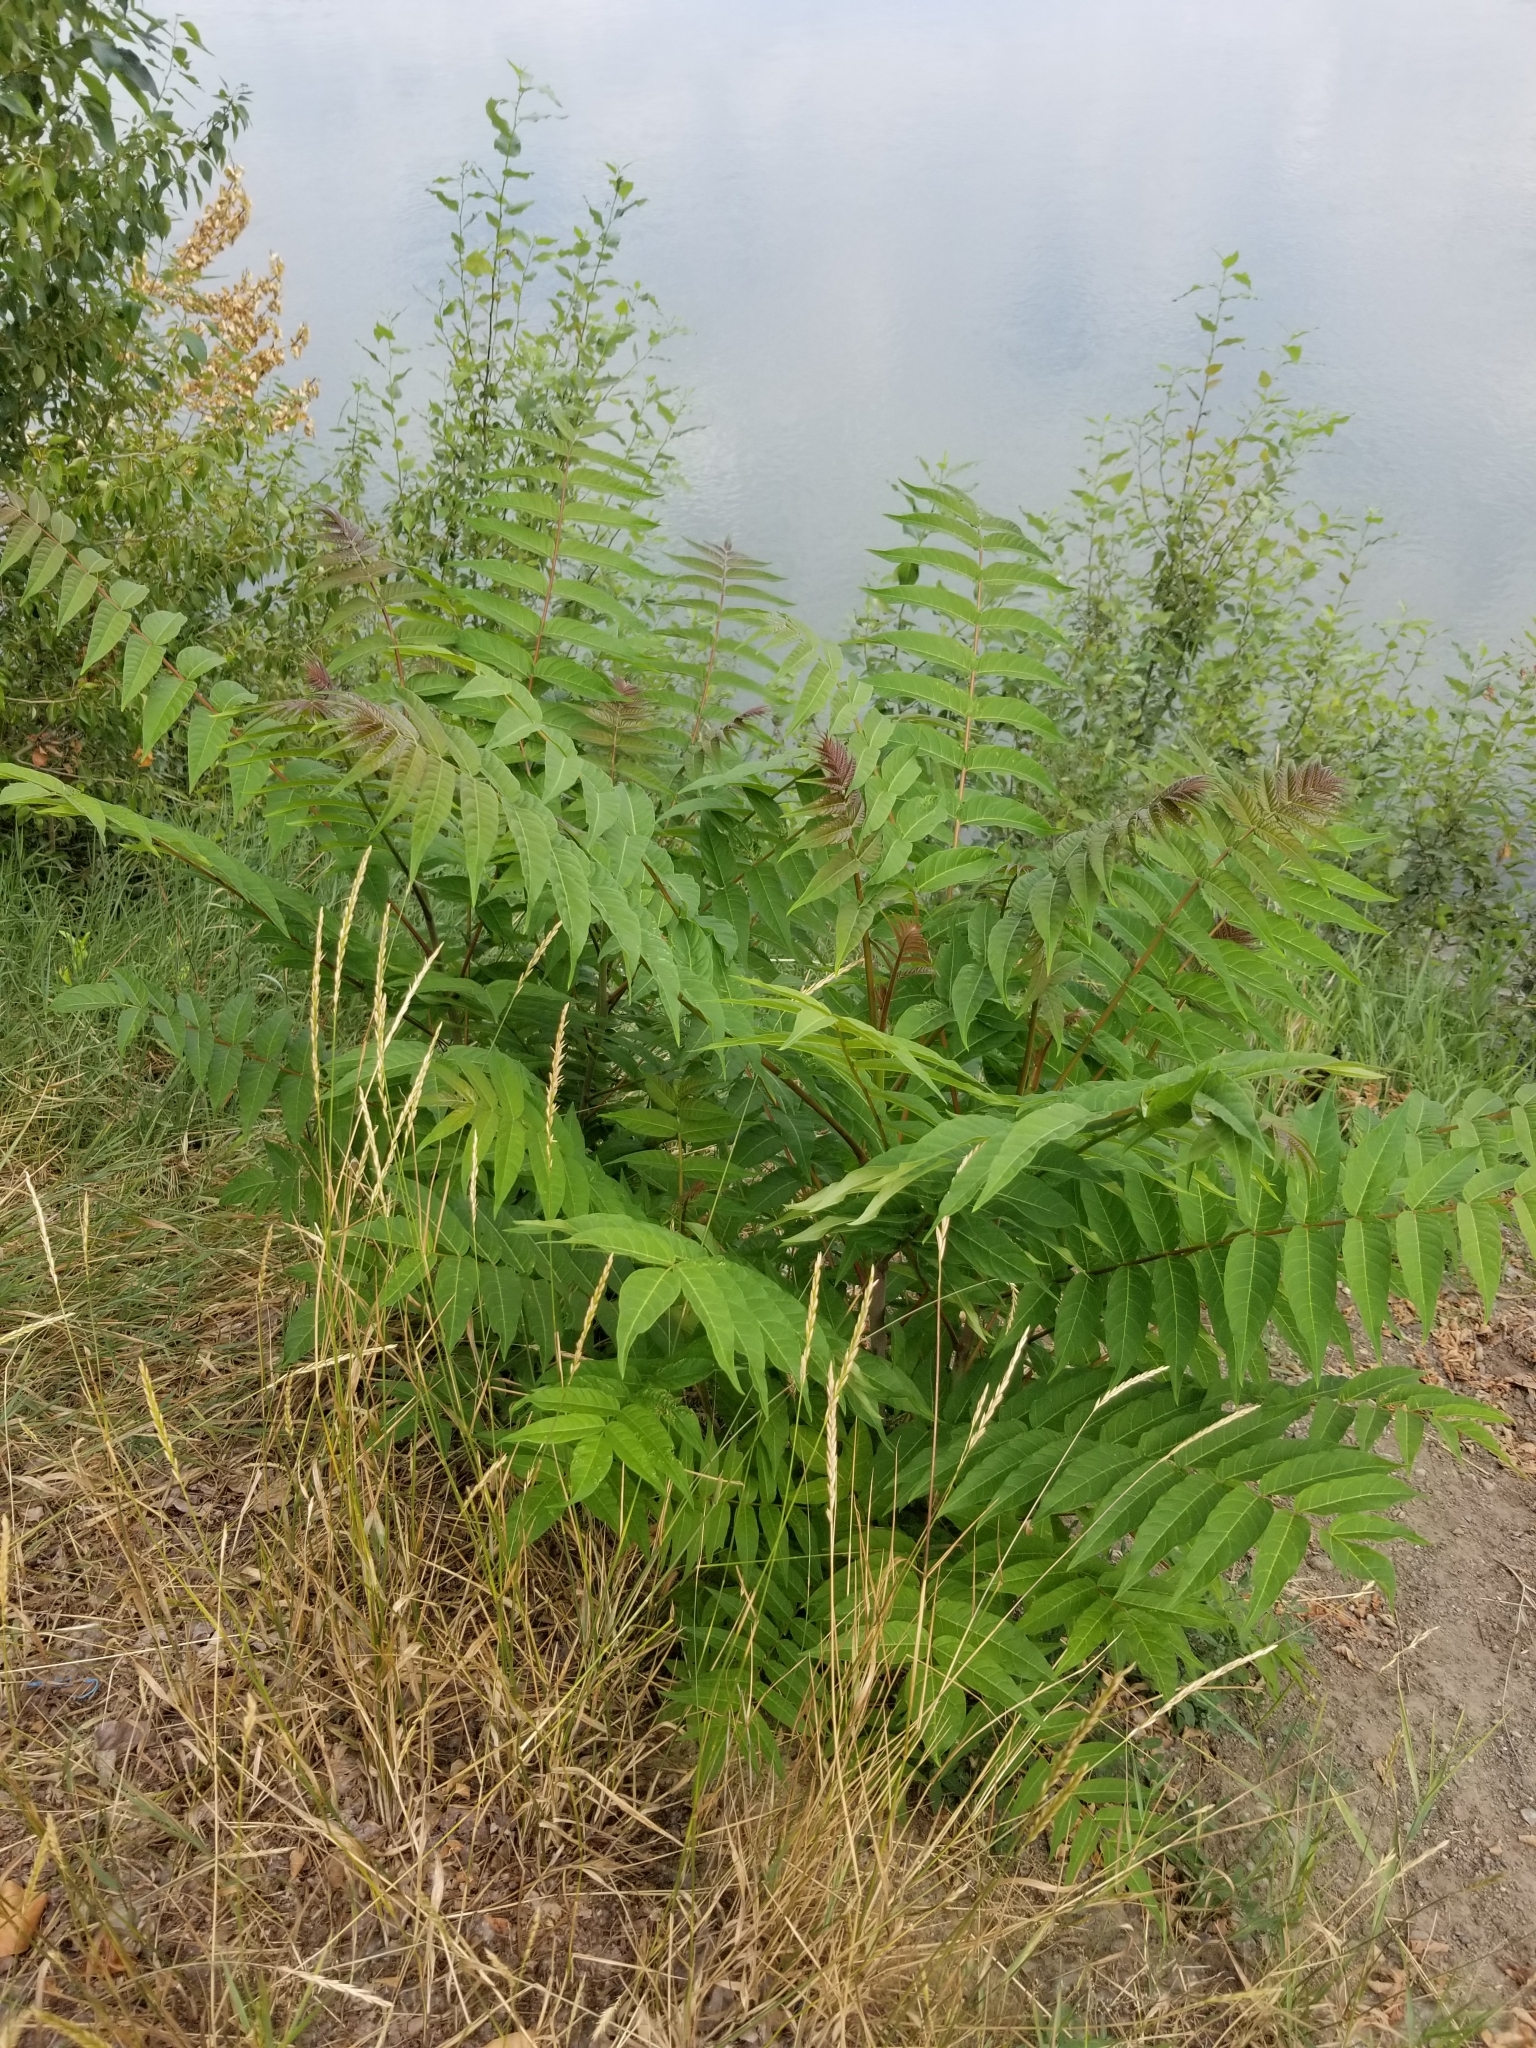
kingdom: Plantae
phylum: Tracheophyta
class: Magnoliopsida
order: Sapindales
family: Simaroubaceae
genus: Ailanthus
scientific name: Ailanthus altissima
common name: Tree-of-heaven
